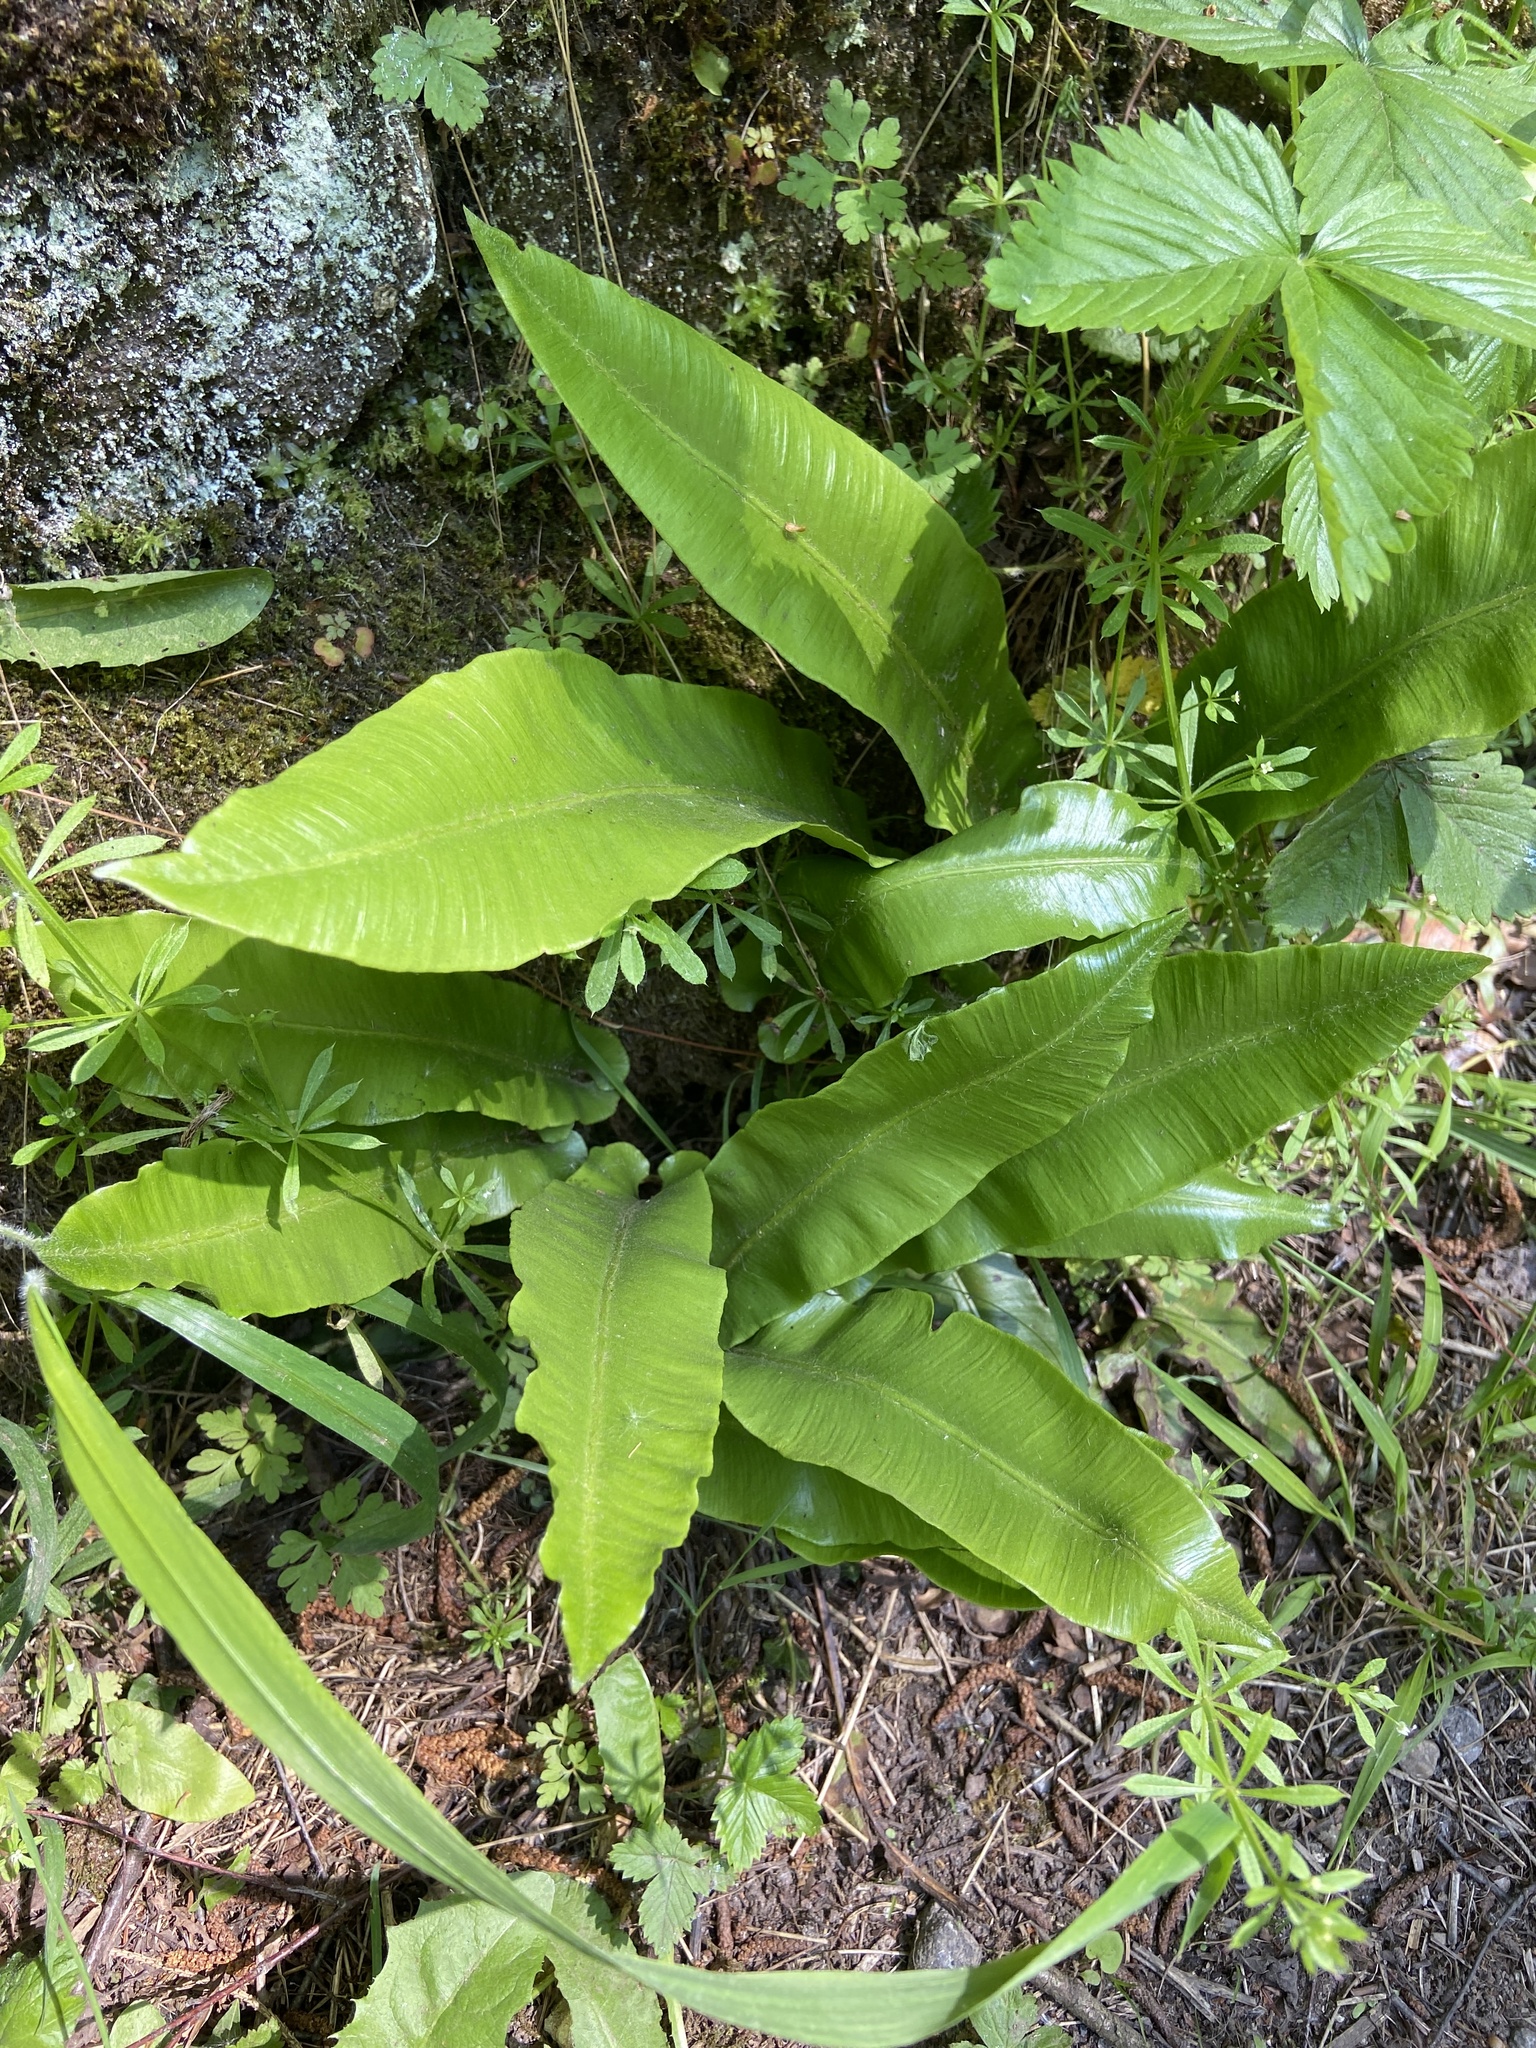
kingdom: Plantae
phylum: Tracheophyta
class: Polypodiopsida
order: Polypodiales
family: Aspleniaceae
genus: Asplenium
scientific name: Asplenium scolopendrium
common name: Hart's-tongue fern
